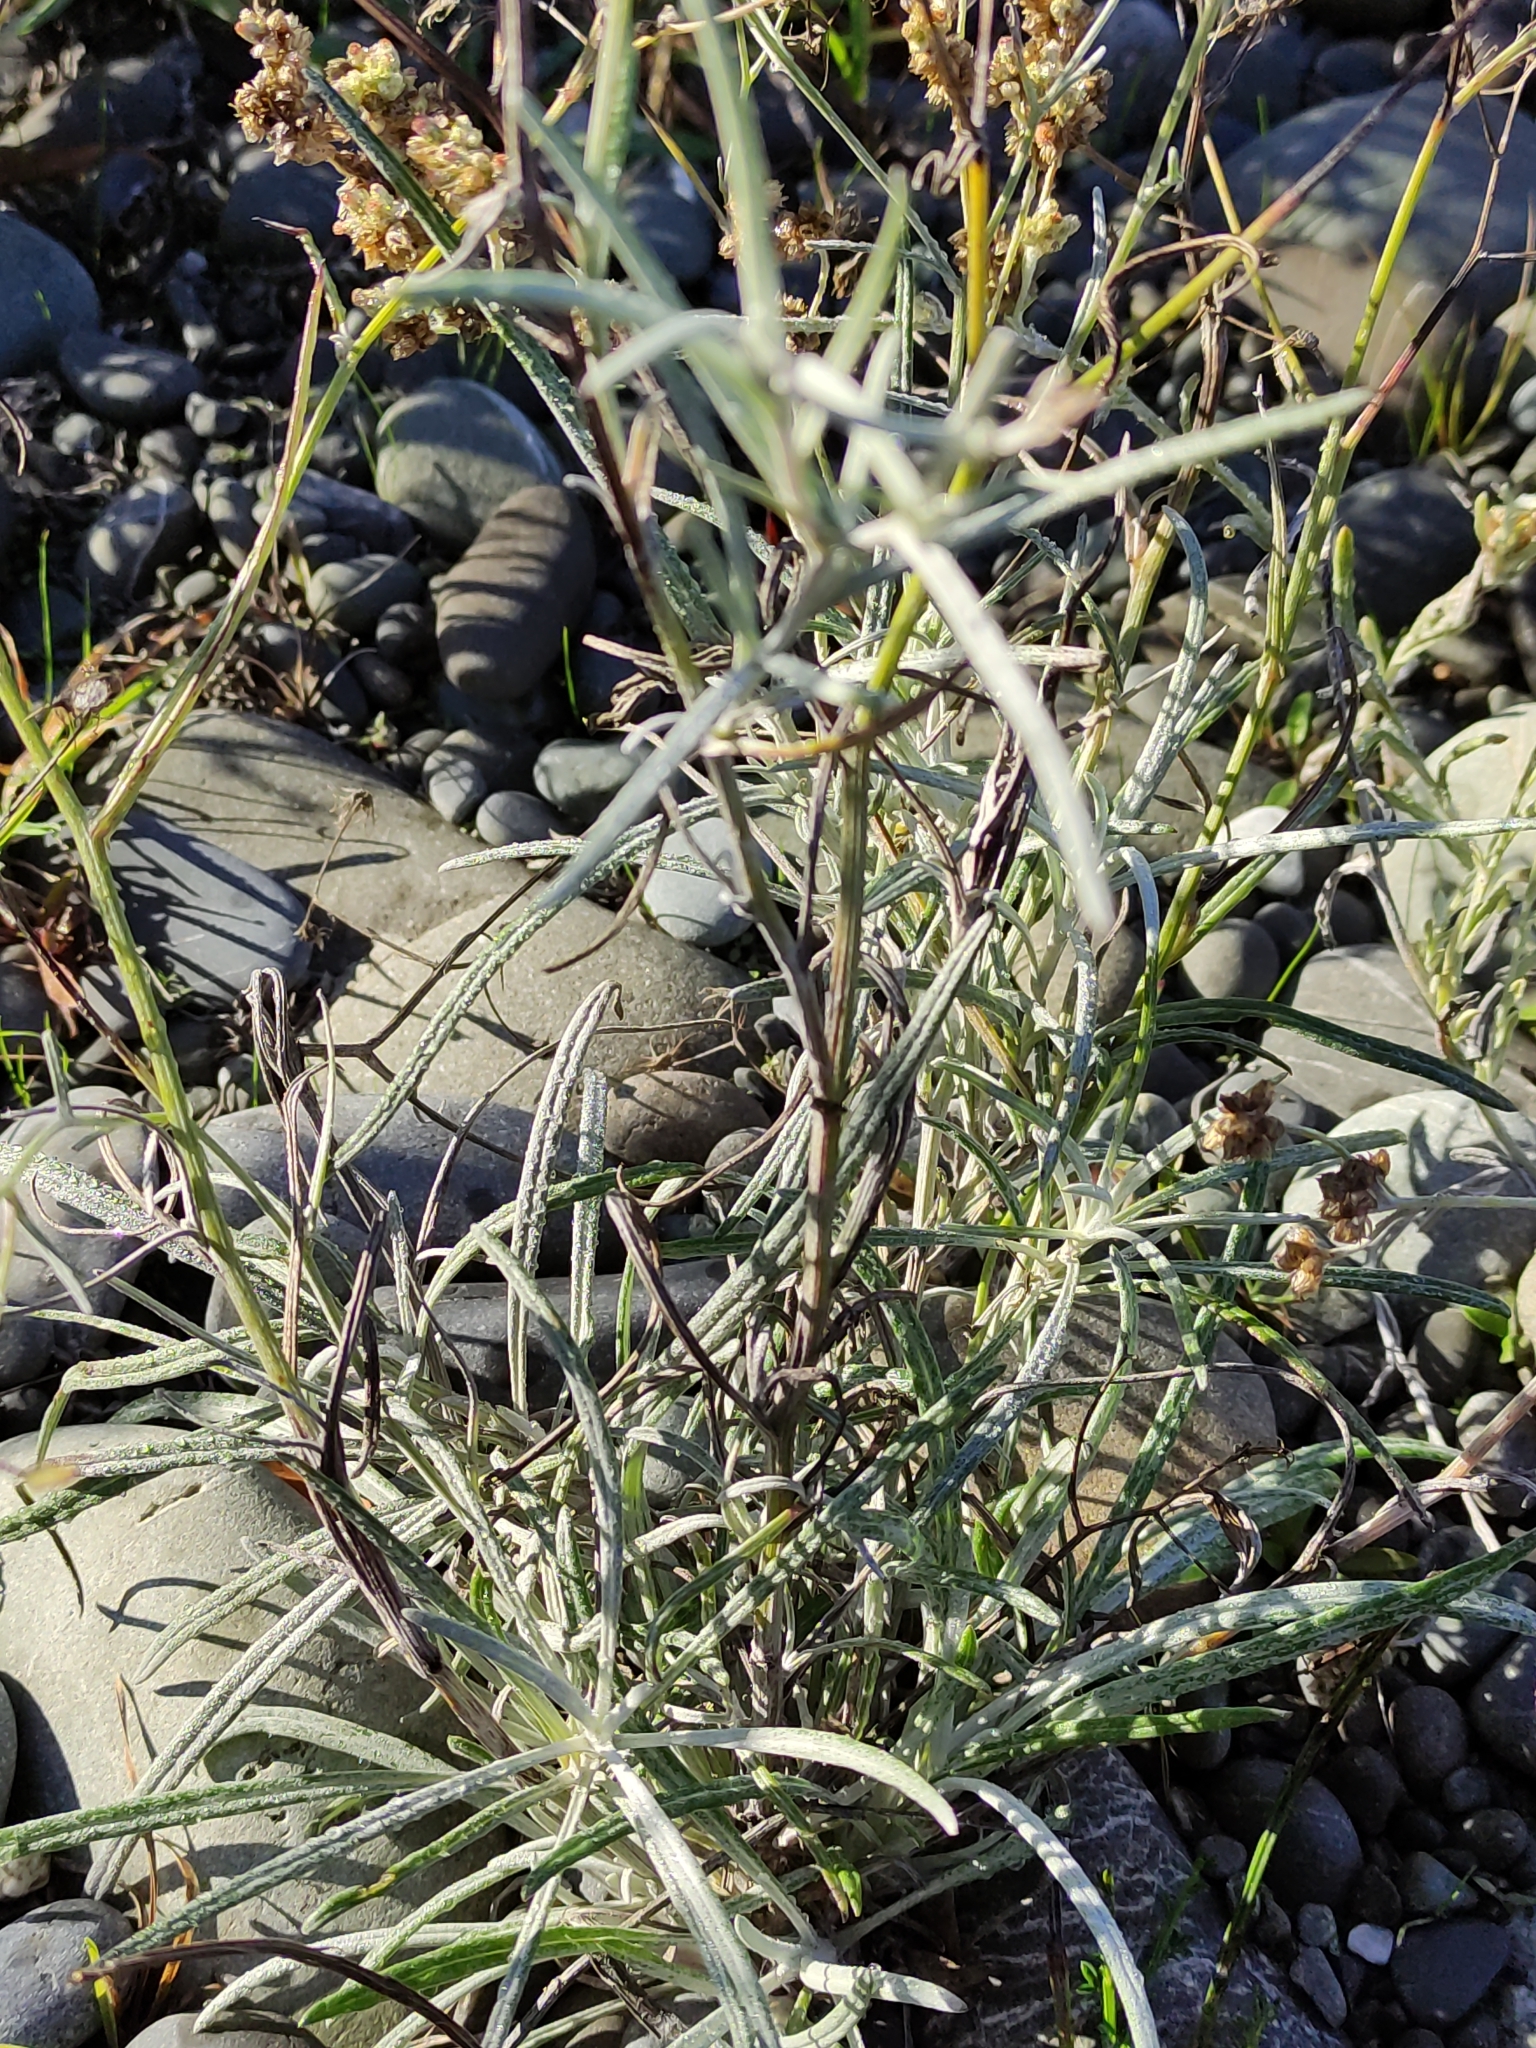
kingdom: Plantae
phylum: Tracheophyta
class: Magnoliopsida
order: Asterales
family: Asteraceae
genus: Senecio
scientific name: Senecio quadridentatus
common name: Cotton fireweed
